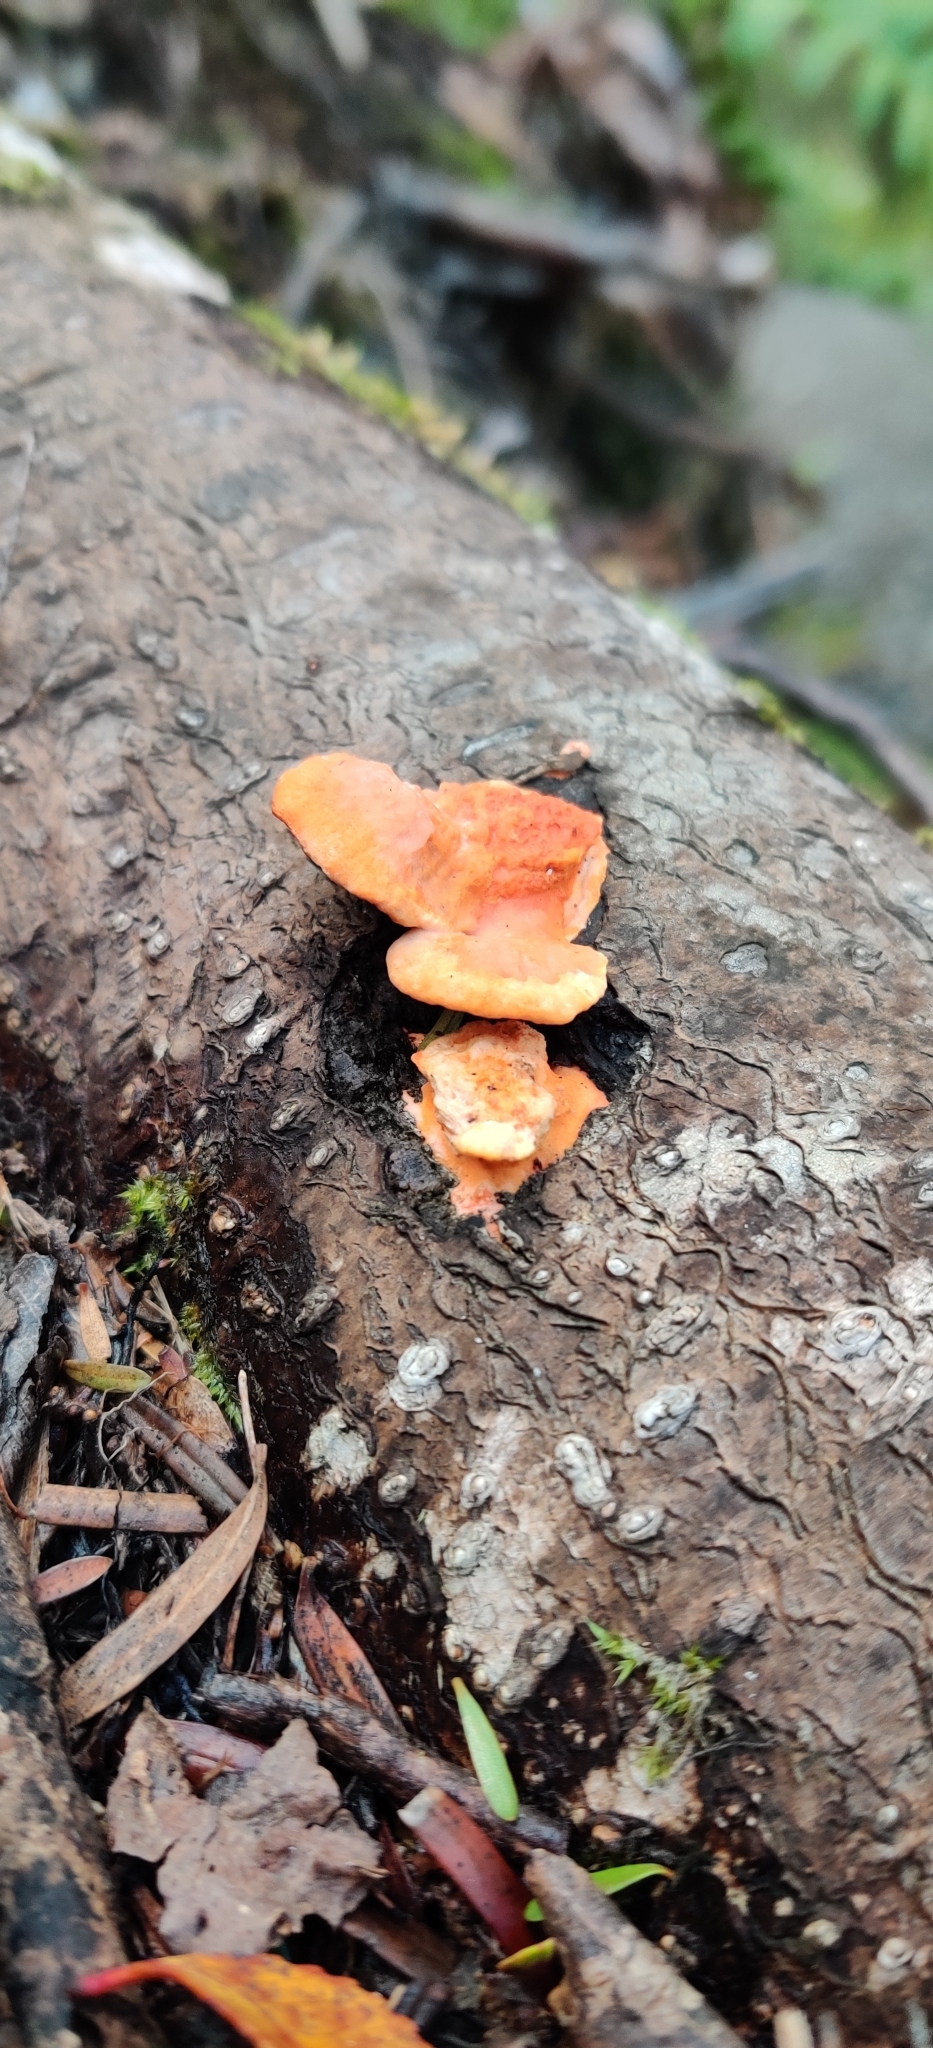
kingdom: Fungi
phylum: Basidiomycota
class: Agaricomycetes
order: Polyporales
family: Polyporaceae
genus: Trametes
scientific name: Trametes coccinea
